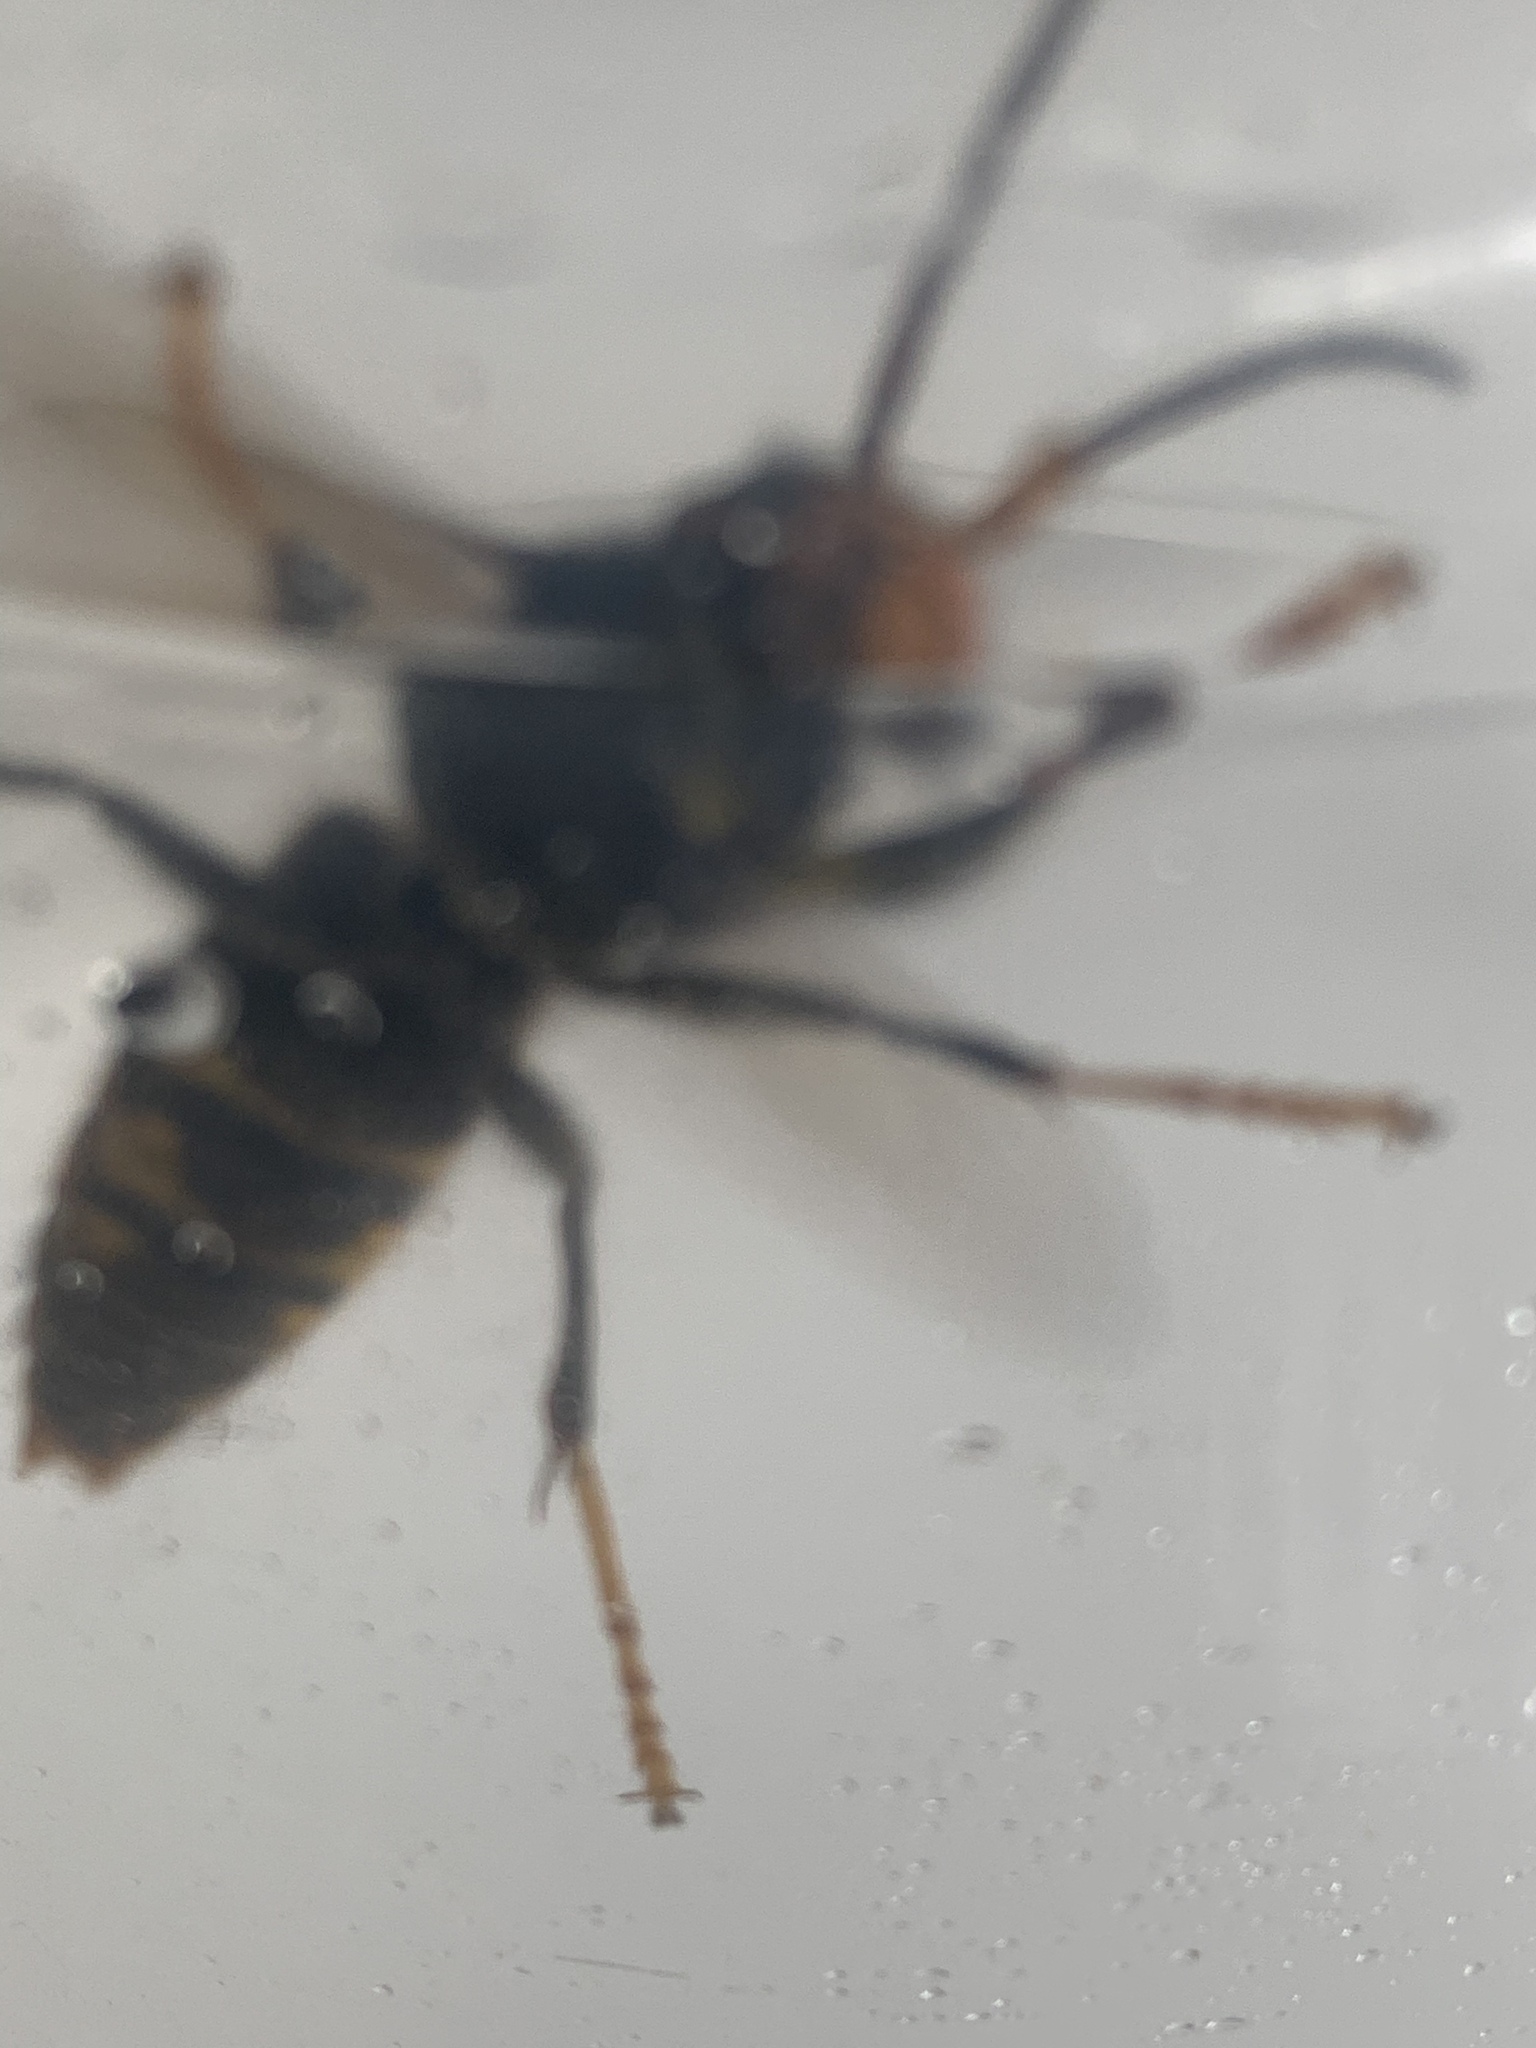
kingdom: Animalia
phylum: Arthropoda
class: Insecta
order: Hymenoptera
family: Vespidae
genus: Vespa
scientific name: Vespa velutina
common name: Asian hornet
